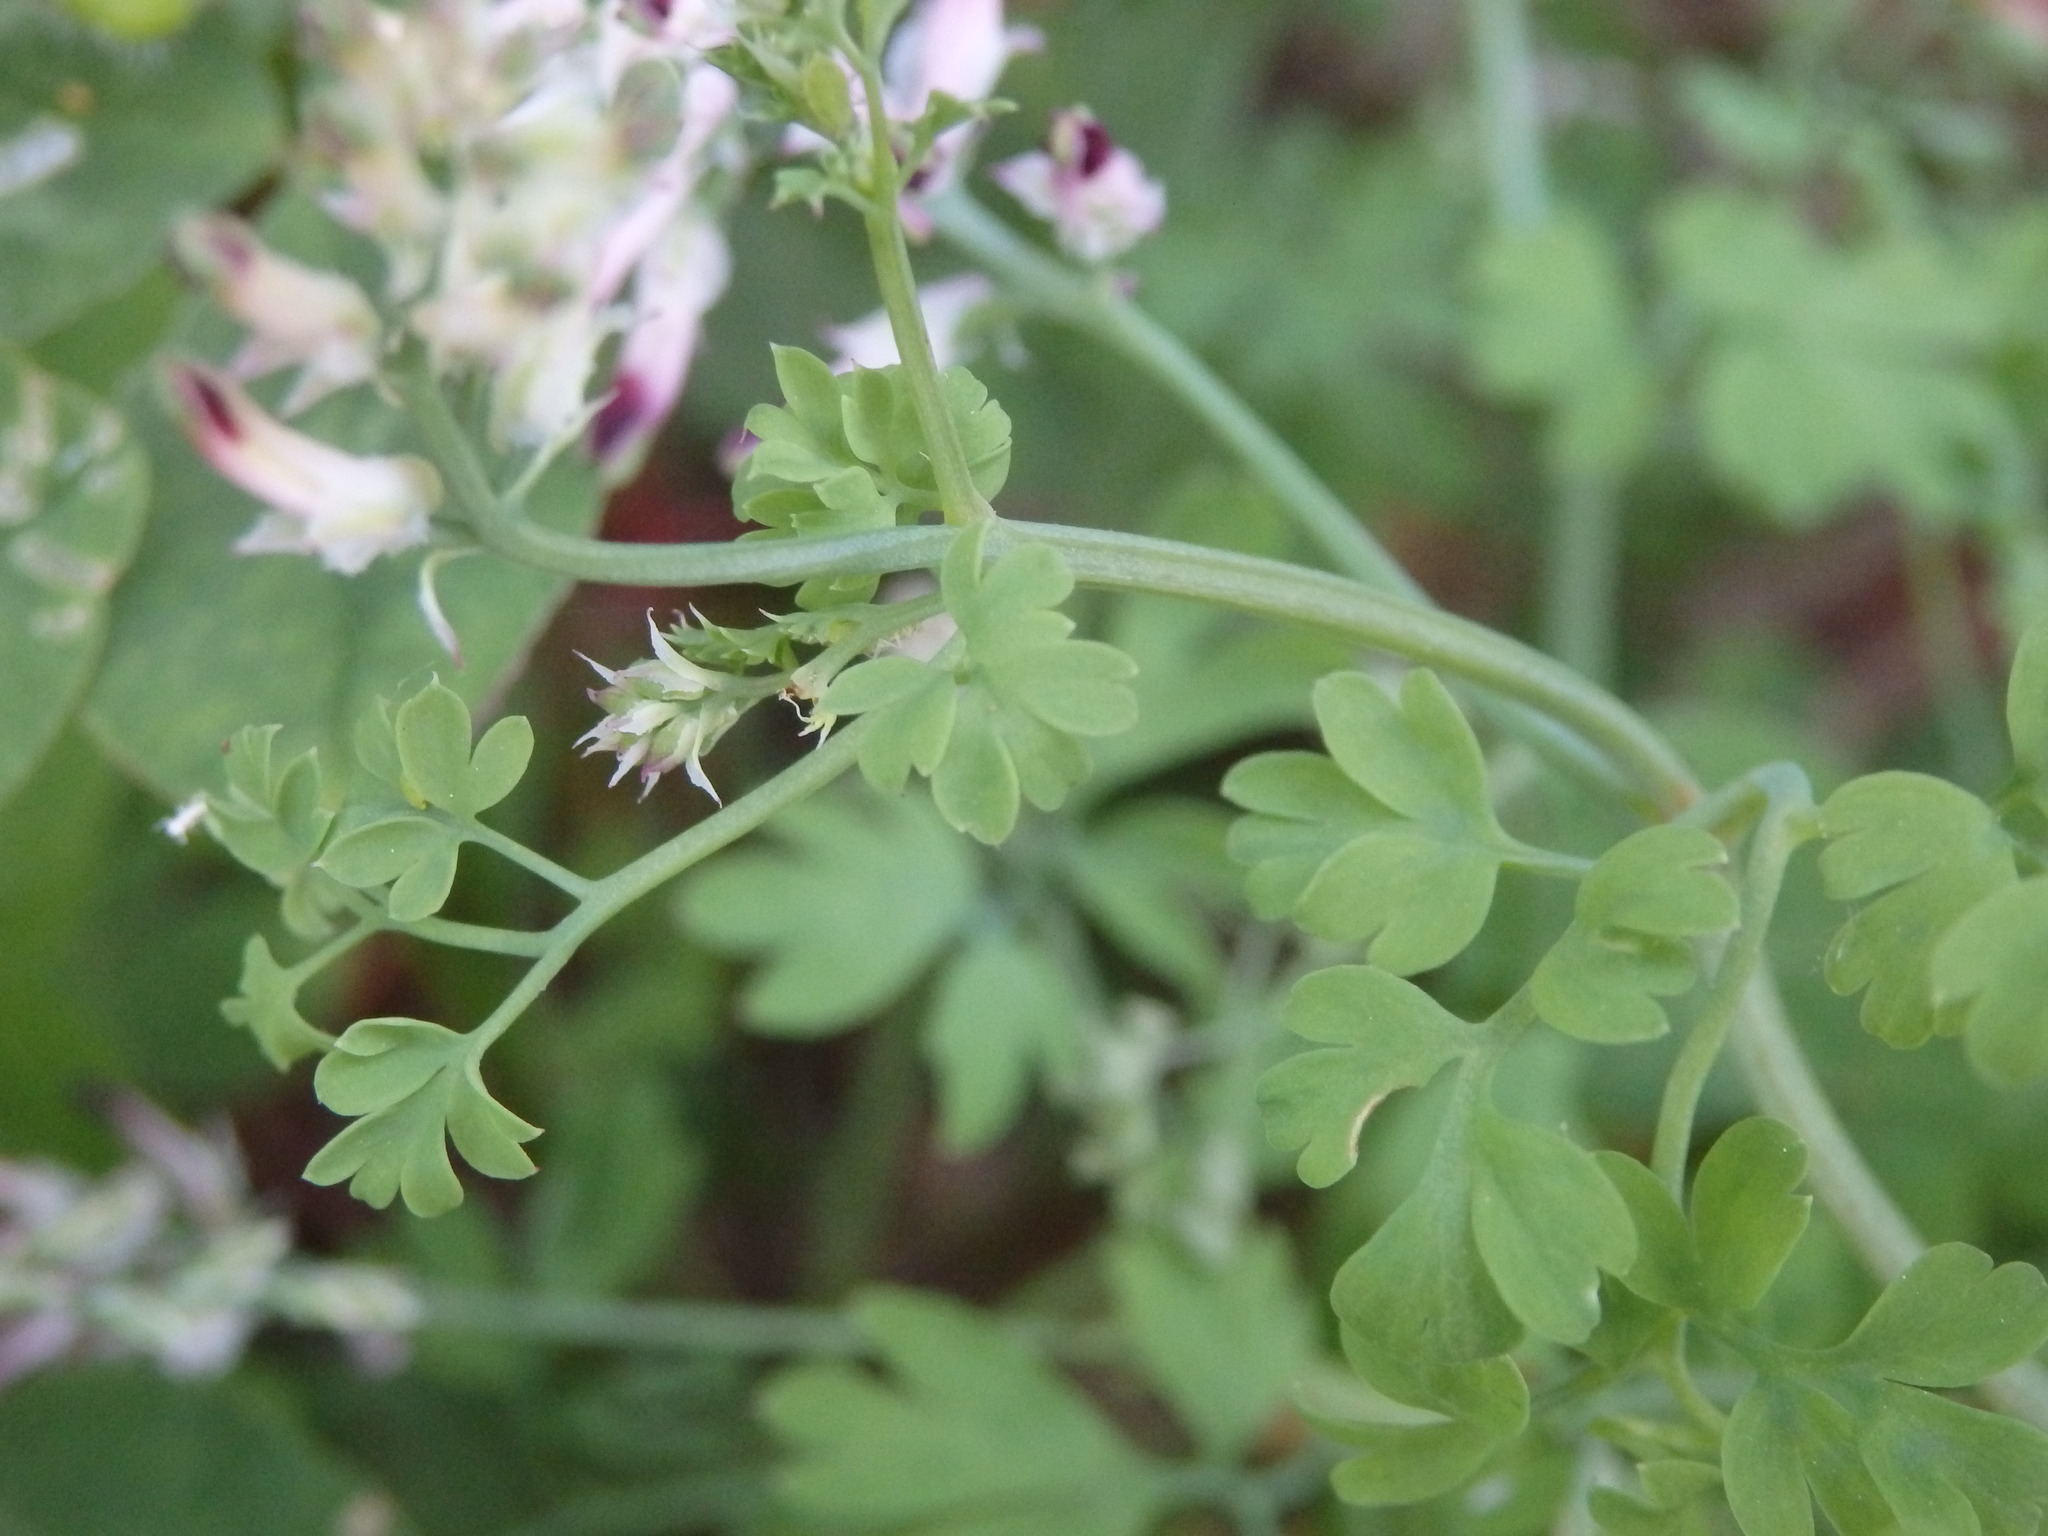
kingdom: Plantae
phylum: Tracheophyta
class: Magnoliopsida
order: Ranunculales
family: Papaveraceae
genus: Fumaria
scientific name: Fumaria capreolata
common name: White ramping-fumitory
